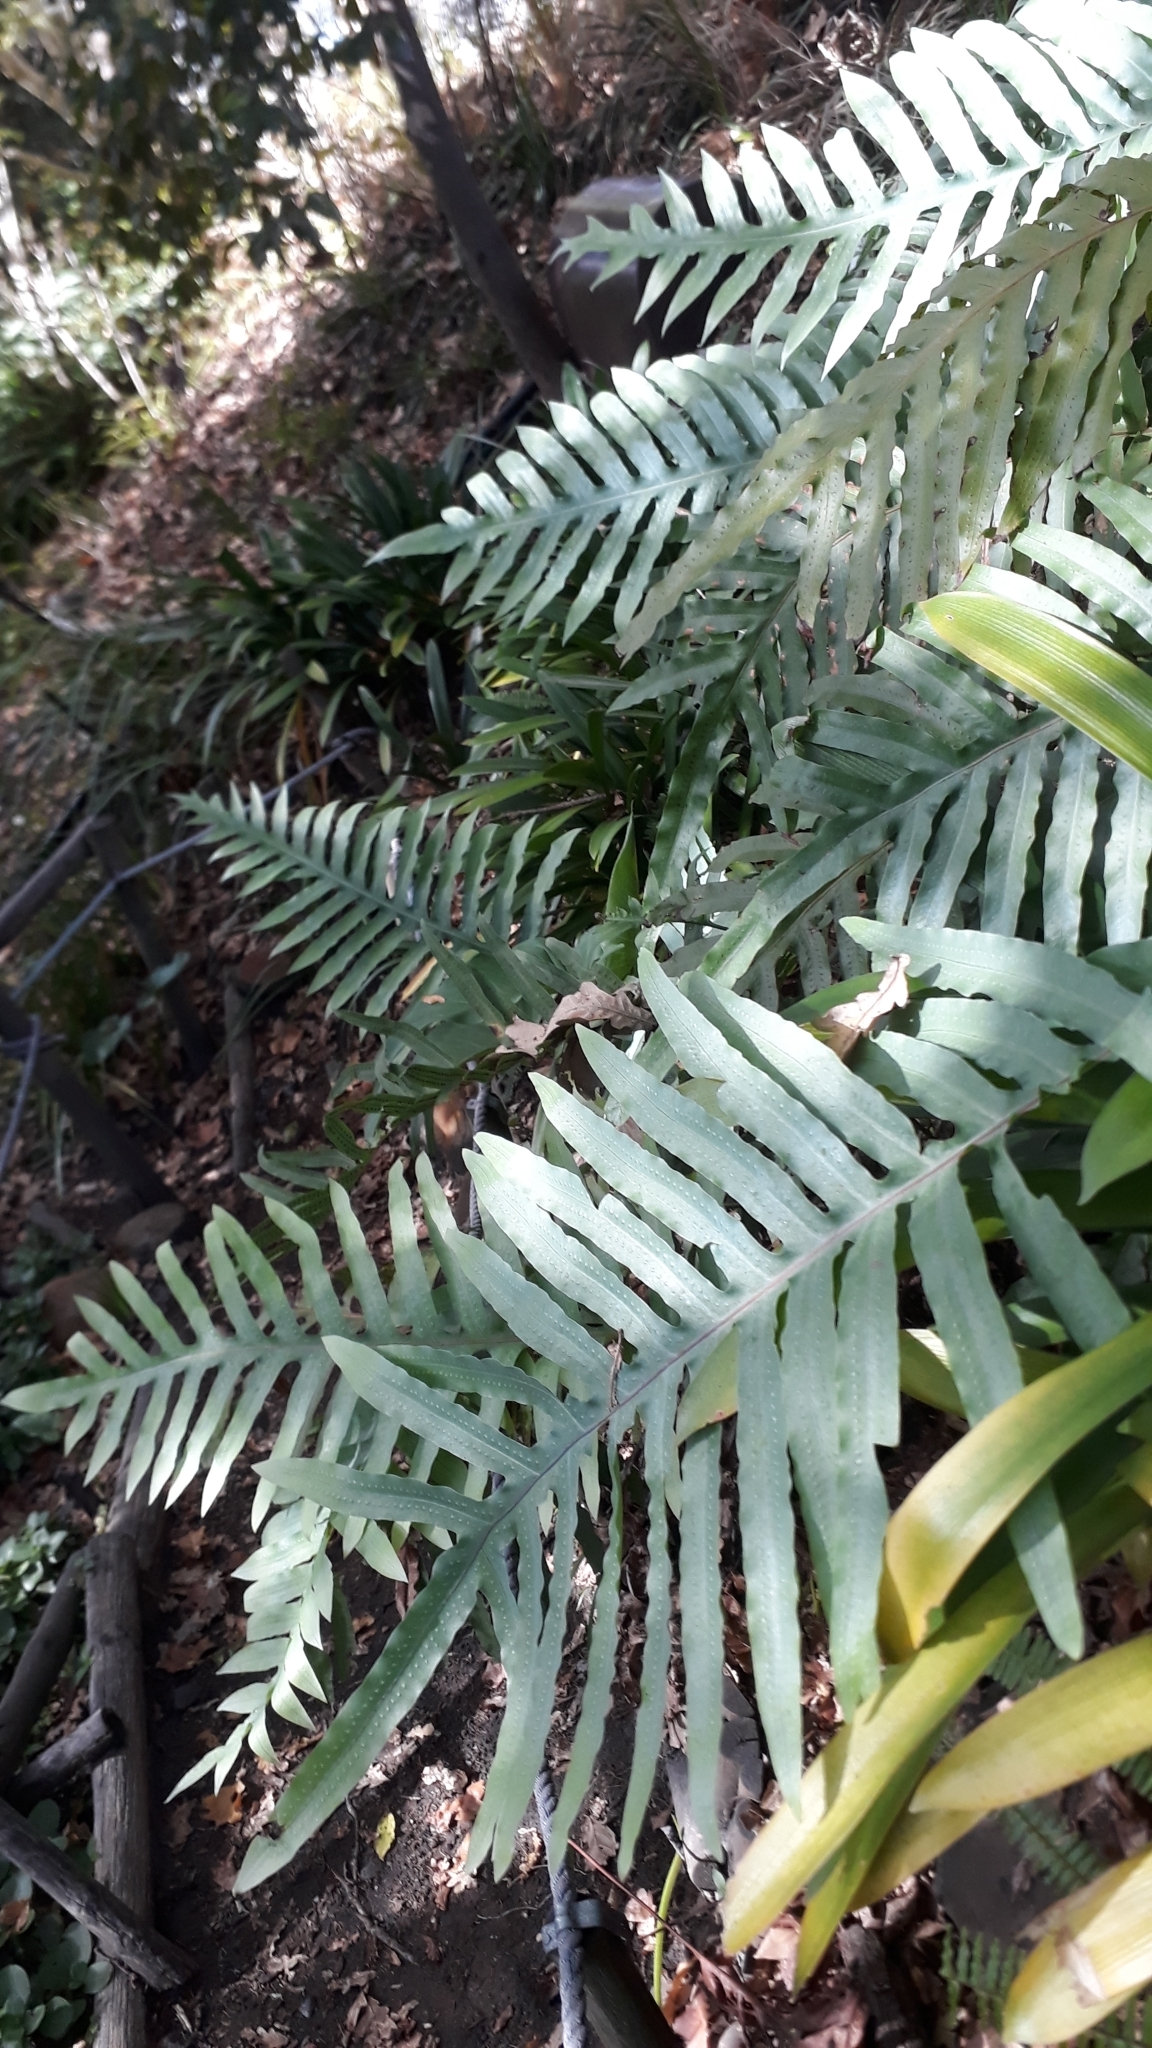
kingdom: Plantae
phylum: Tracheophyta
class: Polypodiopsida
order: Polypodiales
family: Polypodiaceae
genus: Phlebodium
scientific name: Phlebodium aureum
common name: Gold-foot fern
